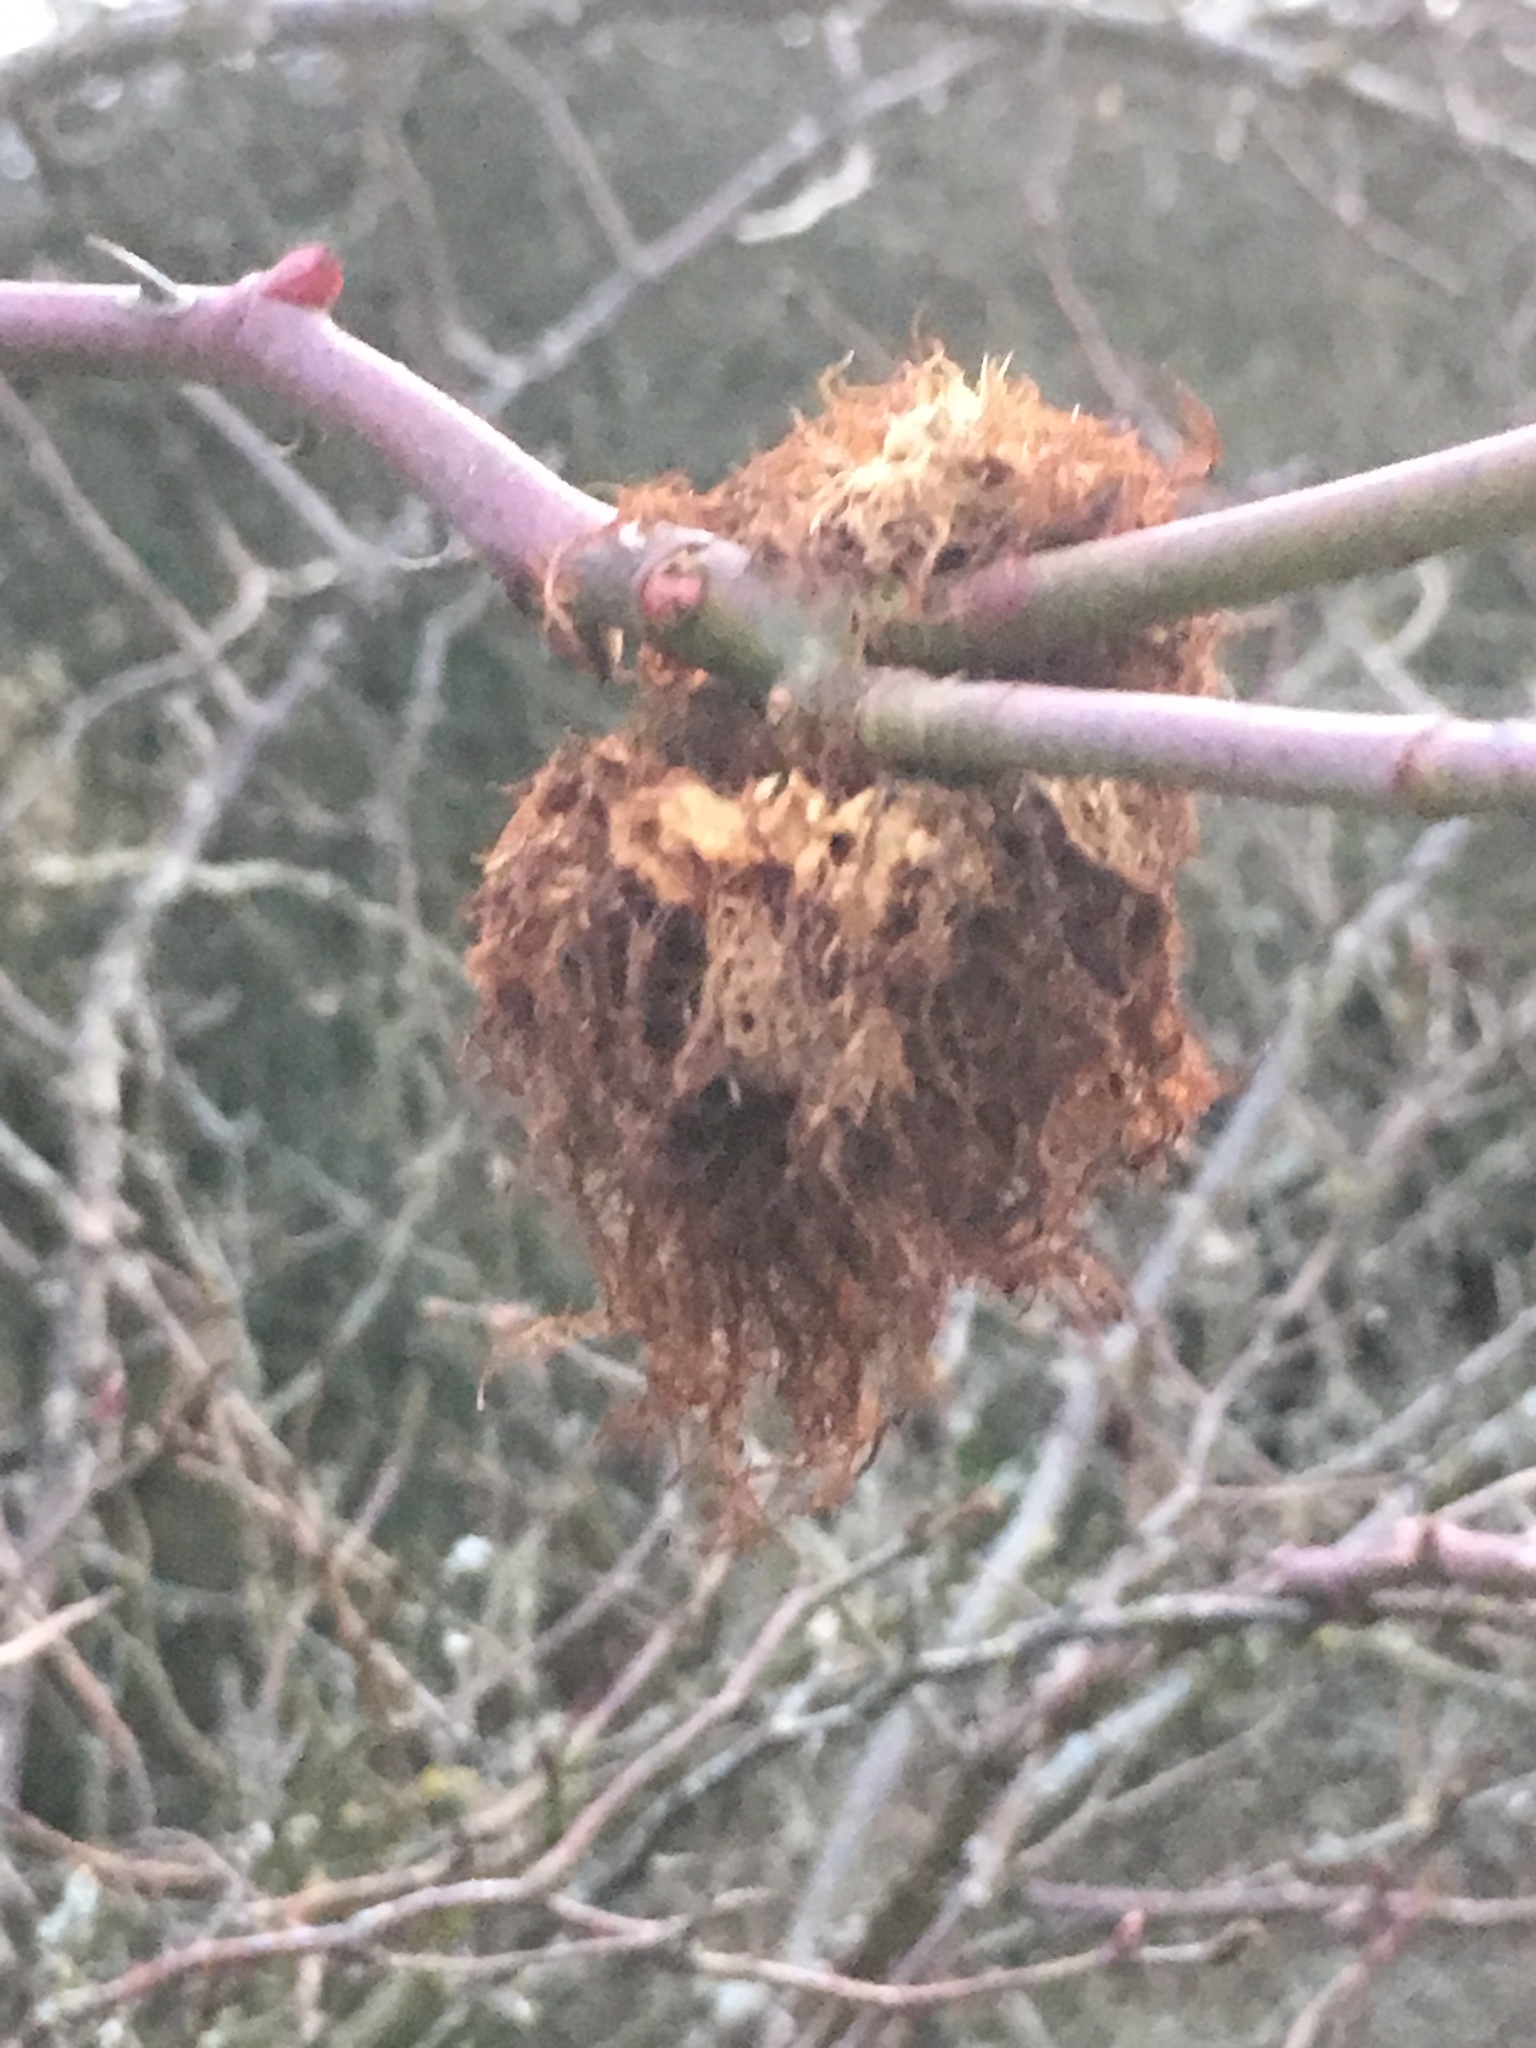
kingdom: Animalia
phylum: Arthropoda
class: Insecta
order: Hymenoptera
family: Cynipidae
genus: Diplolepis
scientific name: Diplolepis rosae
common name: Bedeguar gall
